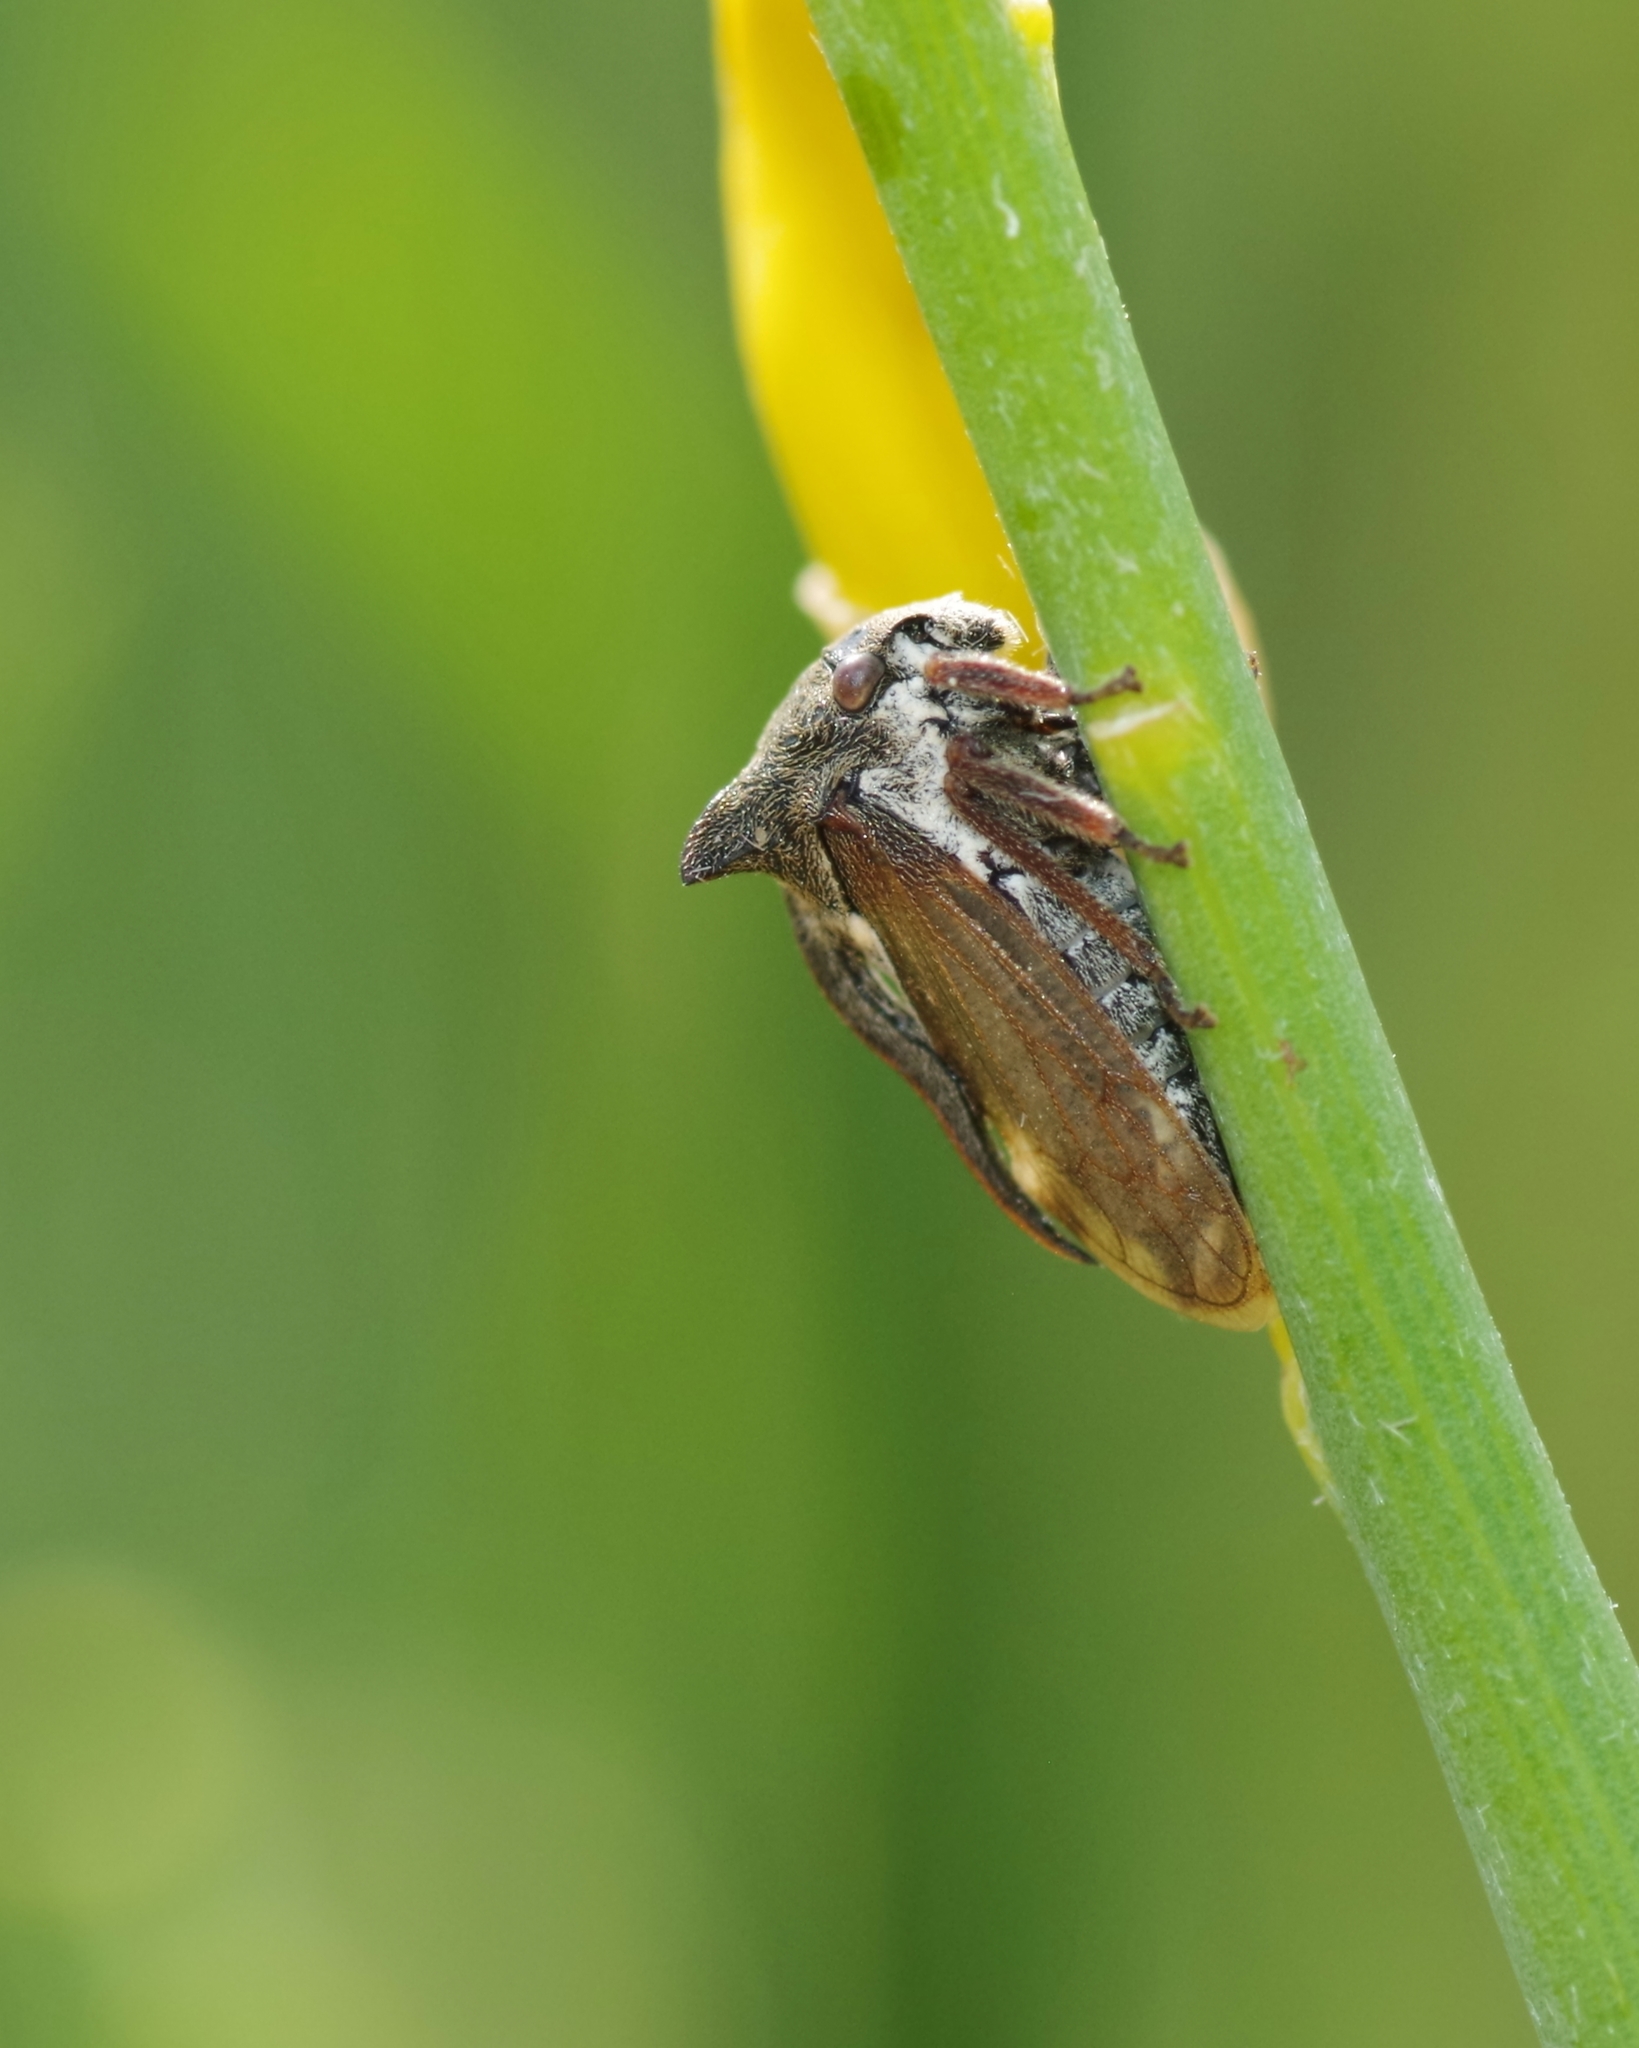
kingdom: Animalia
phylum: Arthropoda
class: Insecta
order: Hemiptera
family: Membracidae
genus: Centrotus
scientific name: Centrotus cornuta
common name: Treehopper
